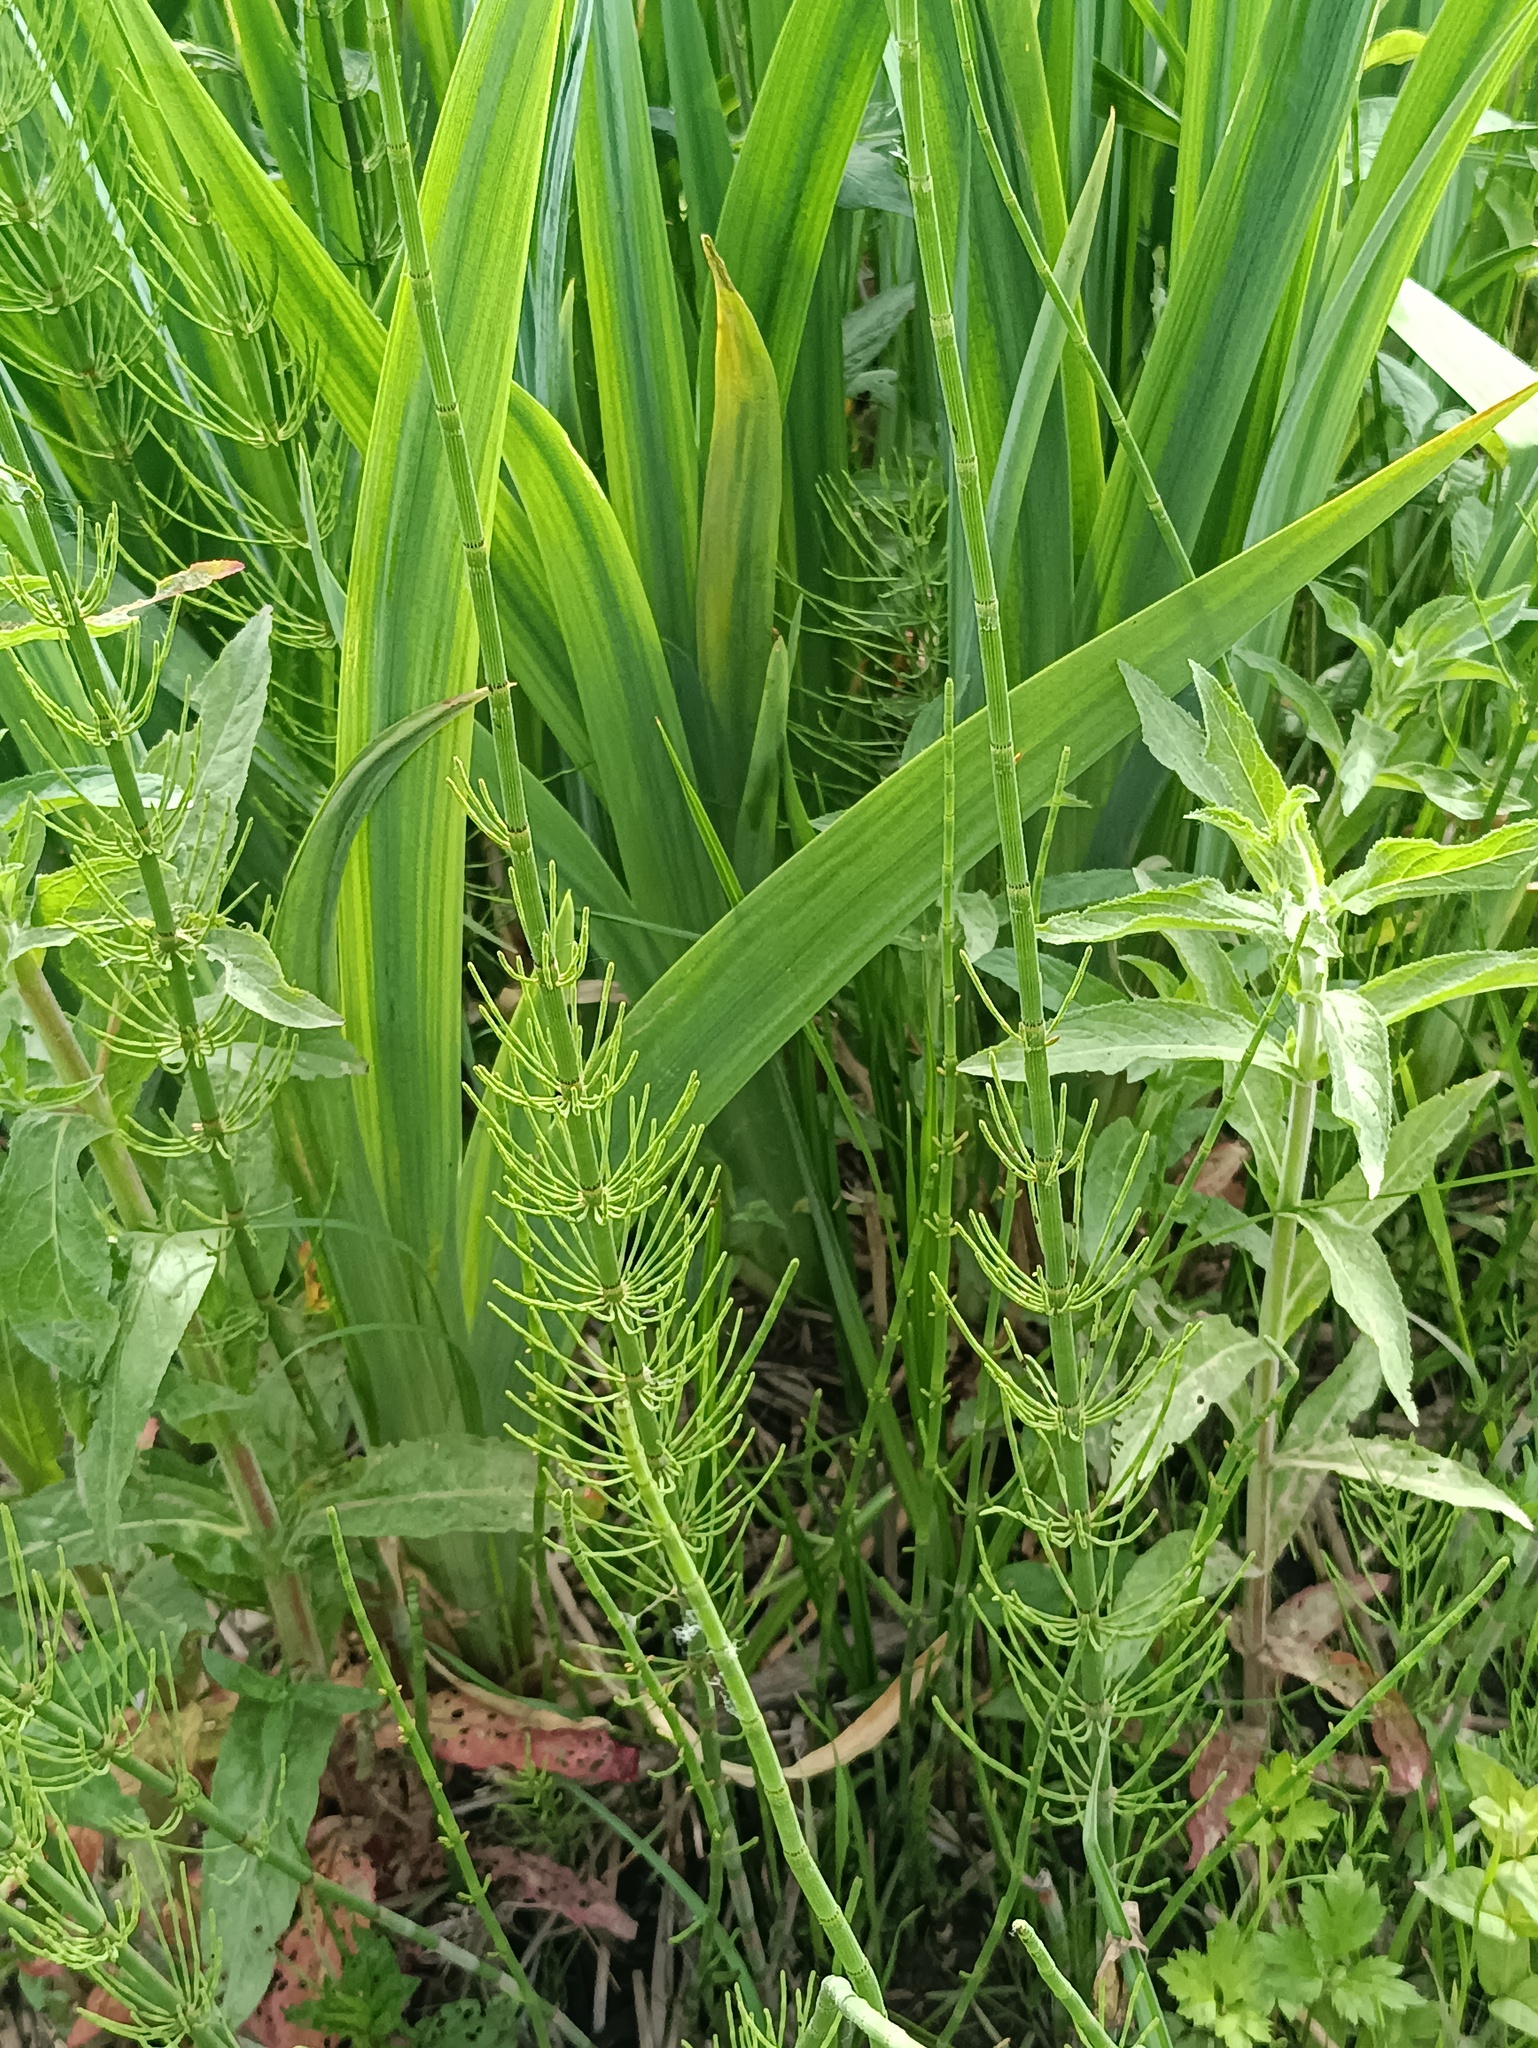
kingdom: Plantae
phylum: Tracheophyta
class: Polypodiopsida
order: Equisetales
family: Equisetaceae
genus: Equisetum
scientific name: Equisetum fluviatile
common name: Water horsetail
